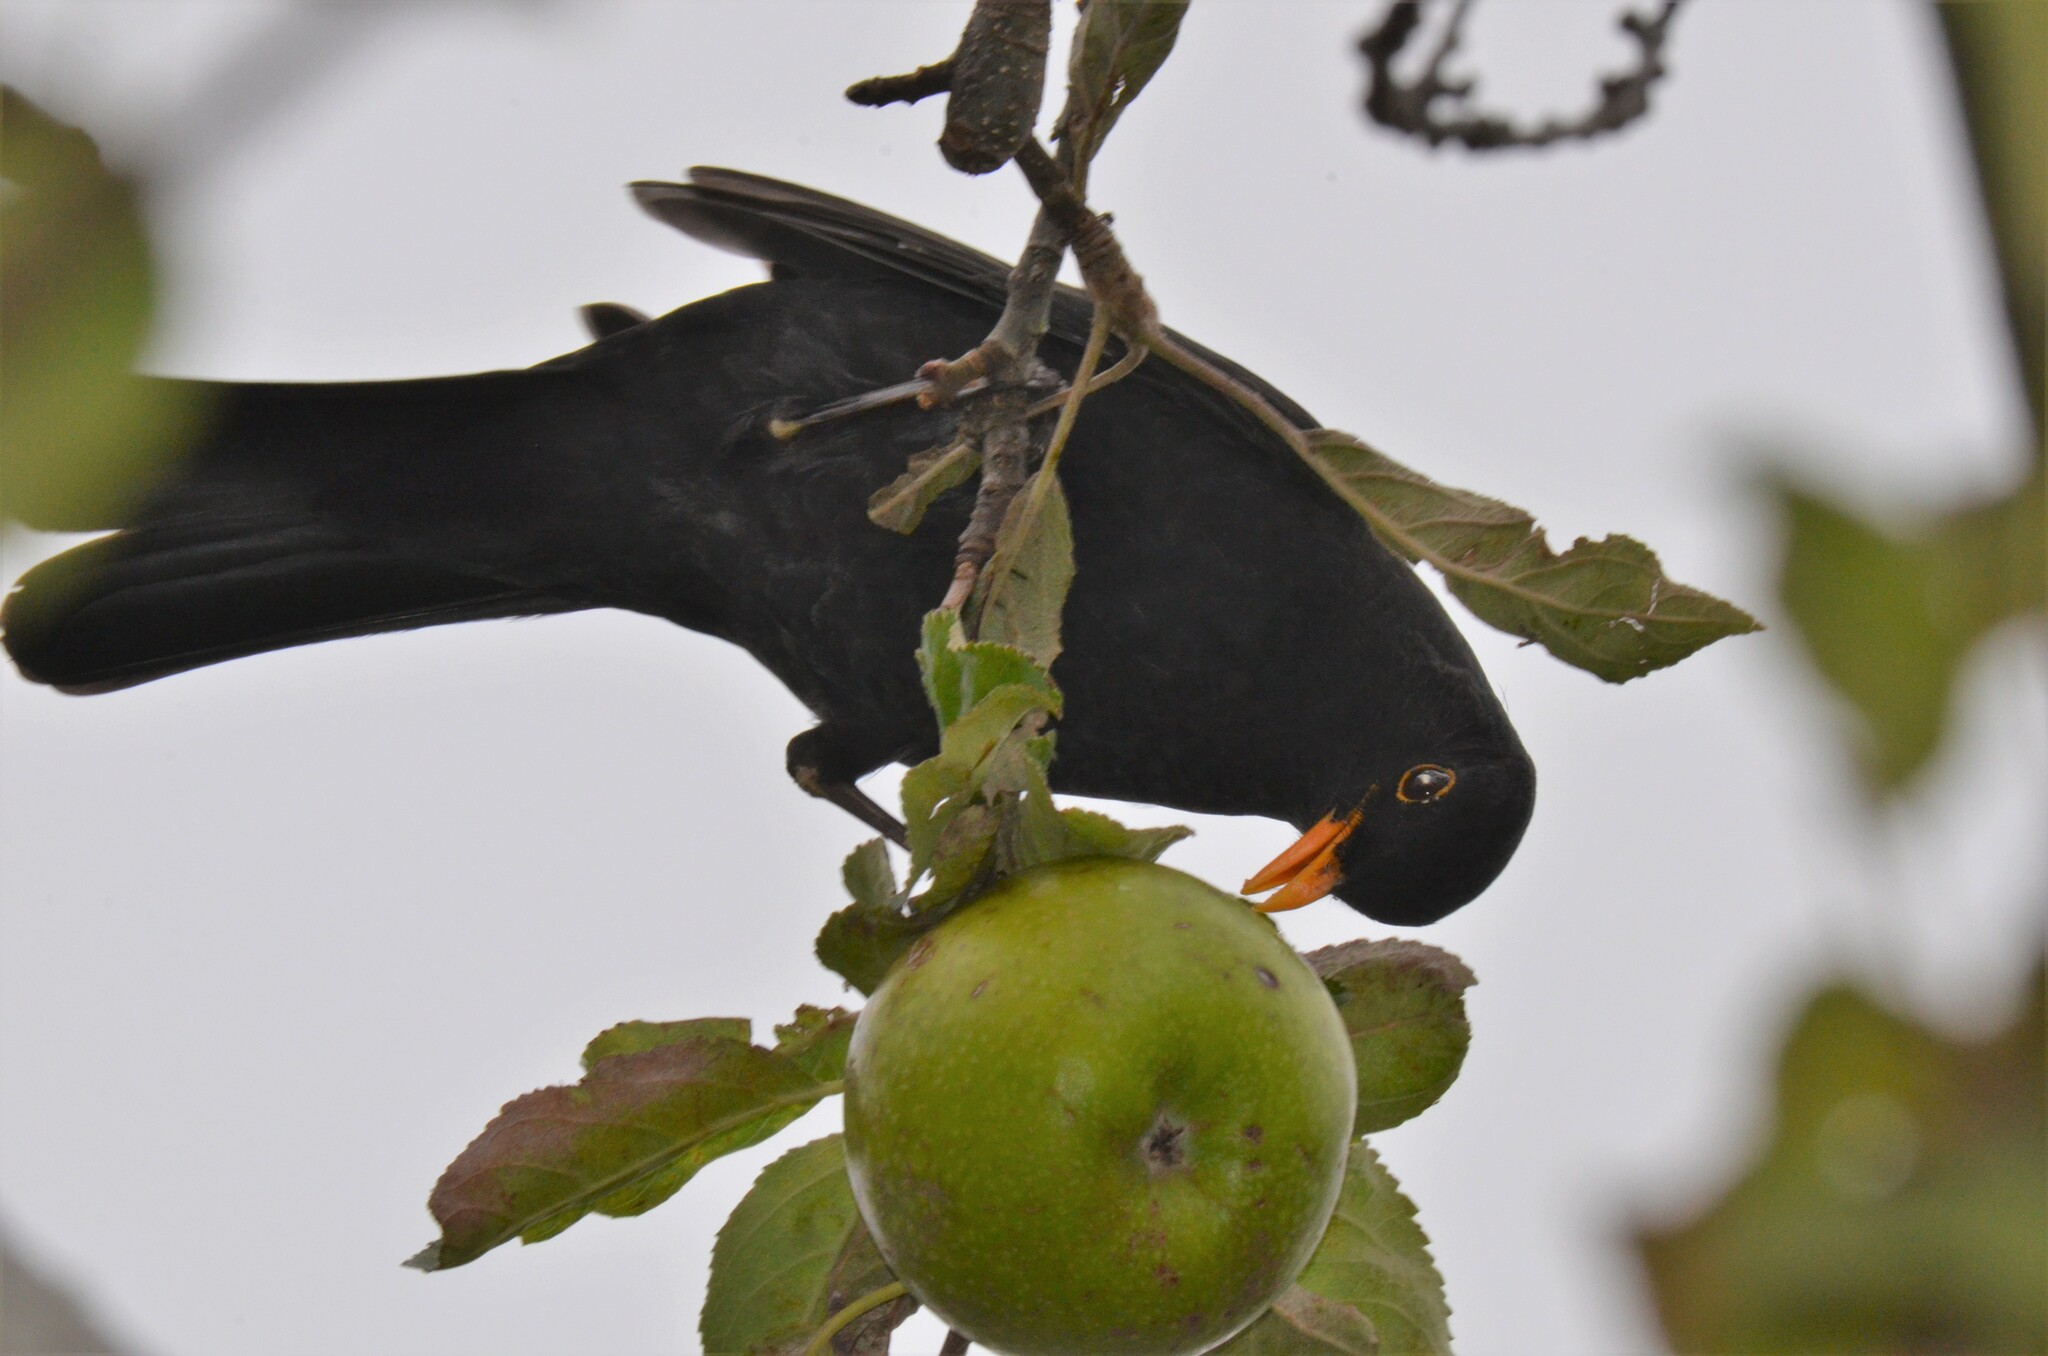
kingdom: Animalia
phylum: Chordata
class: Aves
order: Passeriformes
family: Turdidae
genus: Turdus
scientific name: Turdus merula
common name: Common blackbird
